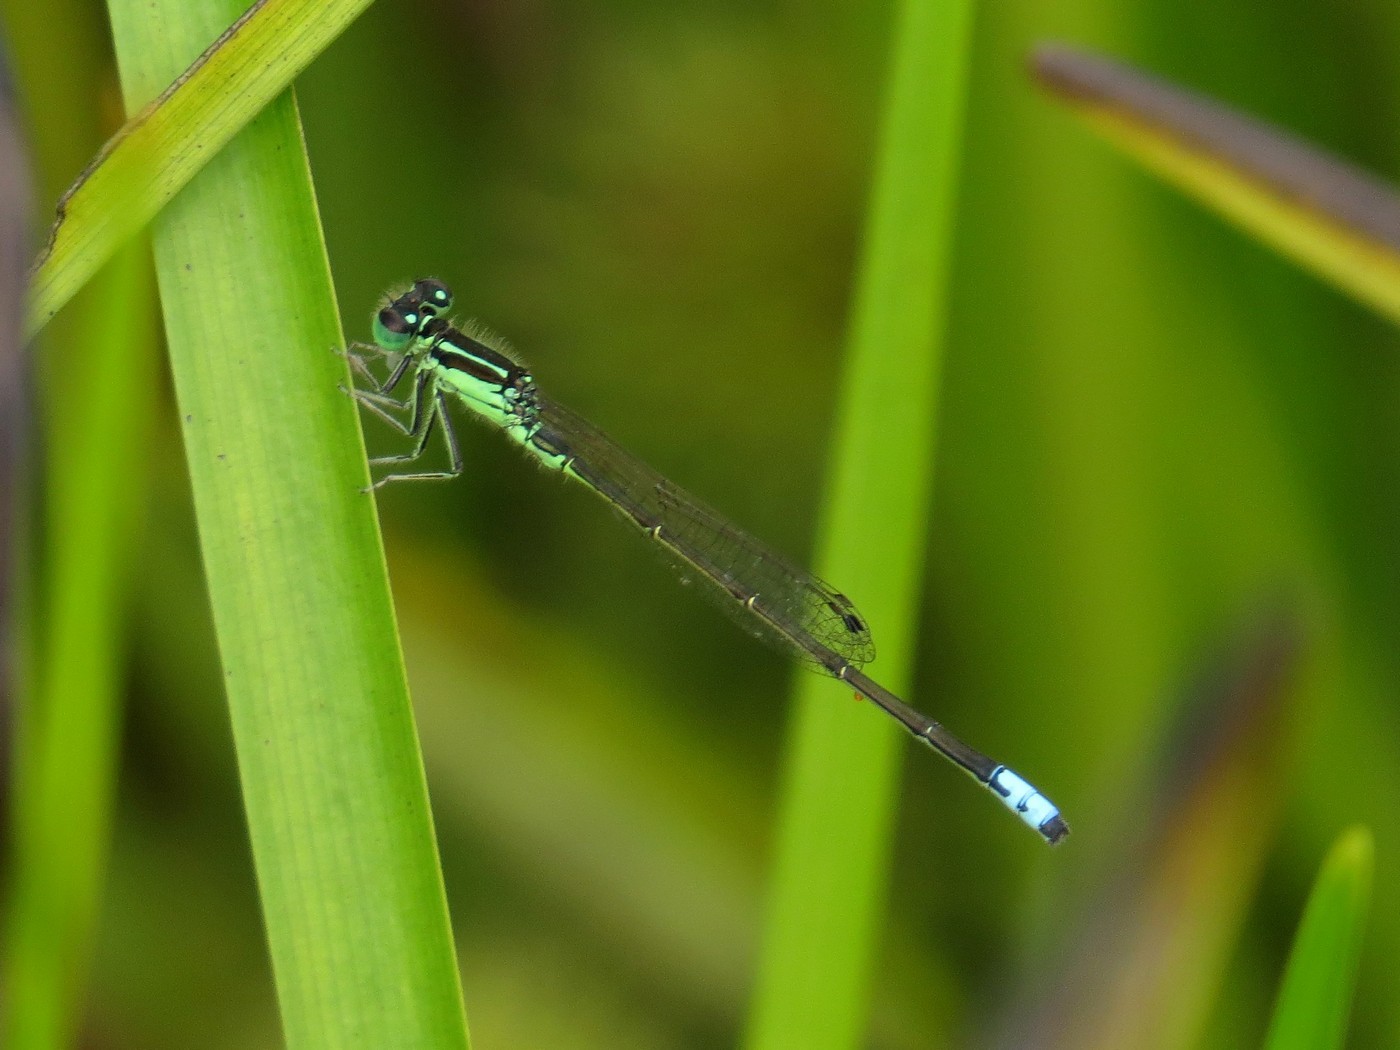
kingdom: Animalia
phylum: Arthropoda
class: Insecta
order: Odonata
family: Coenagrionidae
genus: Ischnura
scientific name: Ischnura verticalis
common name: Eastern forktail
